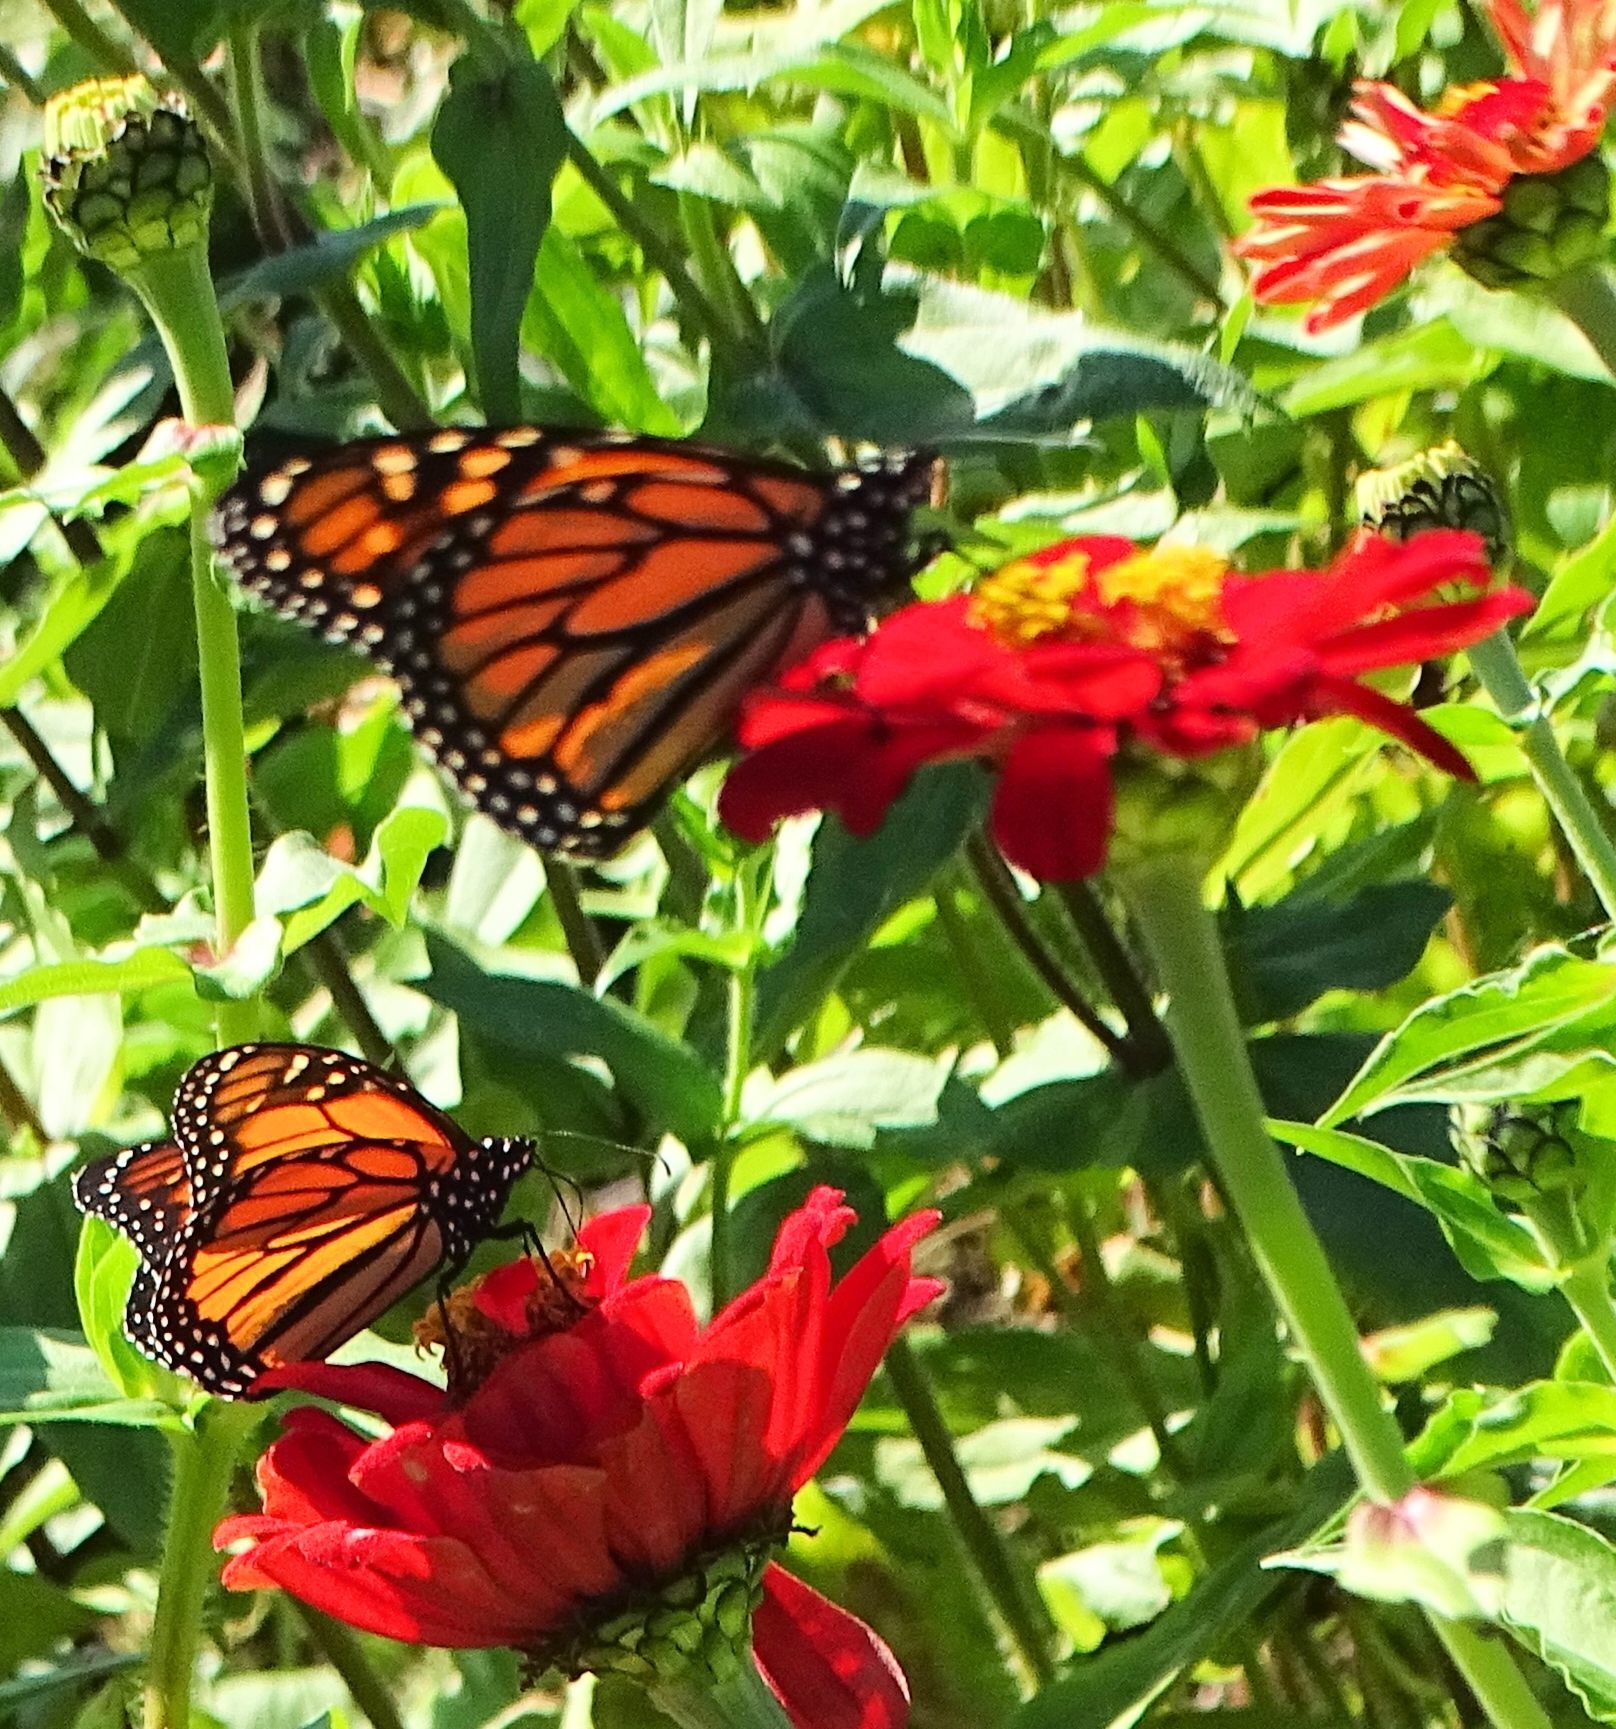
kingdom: Animalia
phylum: Arthropoda
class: Insecta
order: Lepidoptera
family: Nymphalidae
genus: Danaus
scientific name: Danaus plexippus
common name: Monarch
